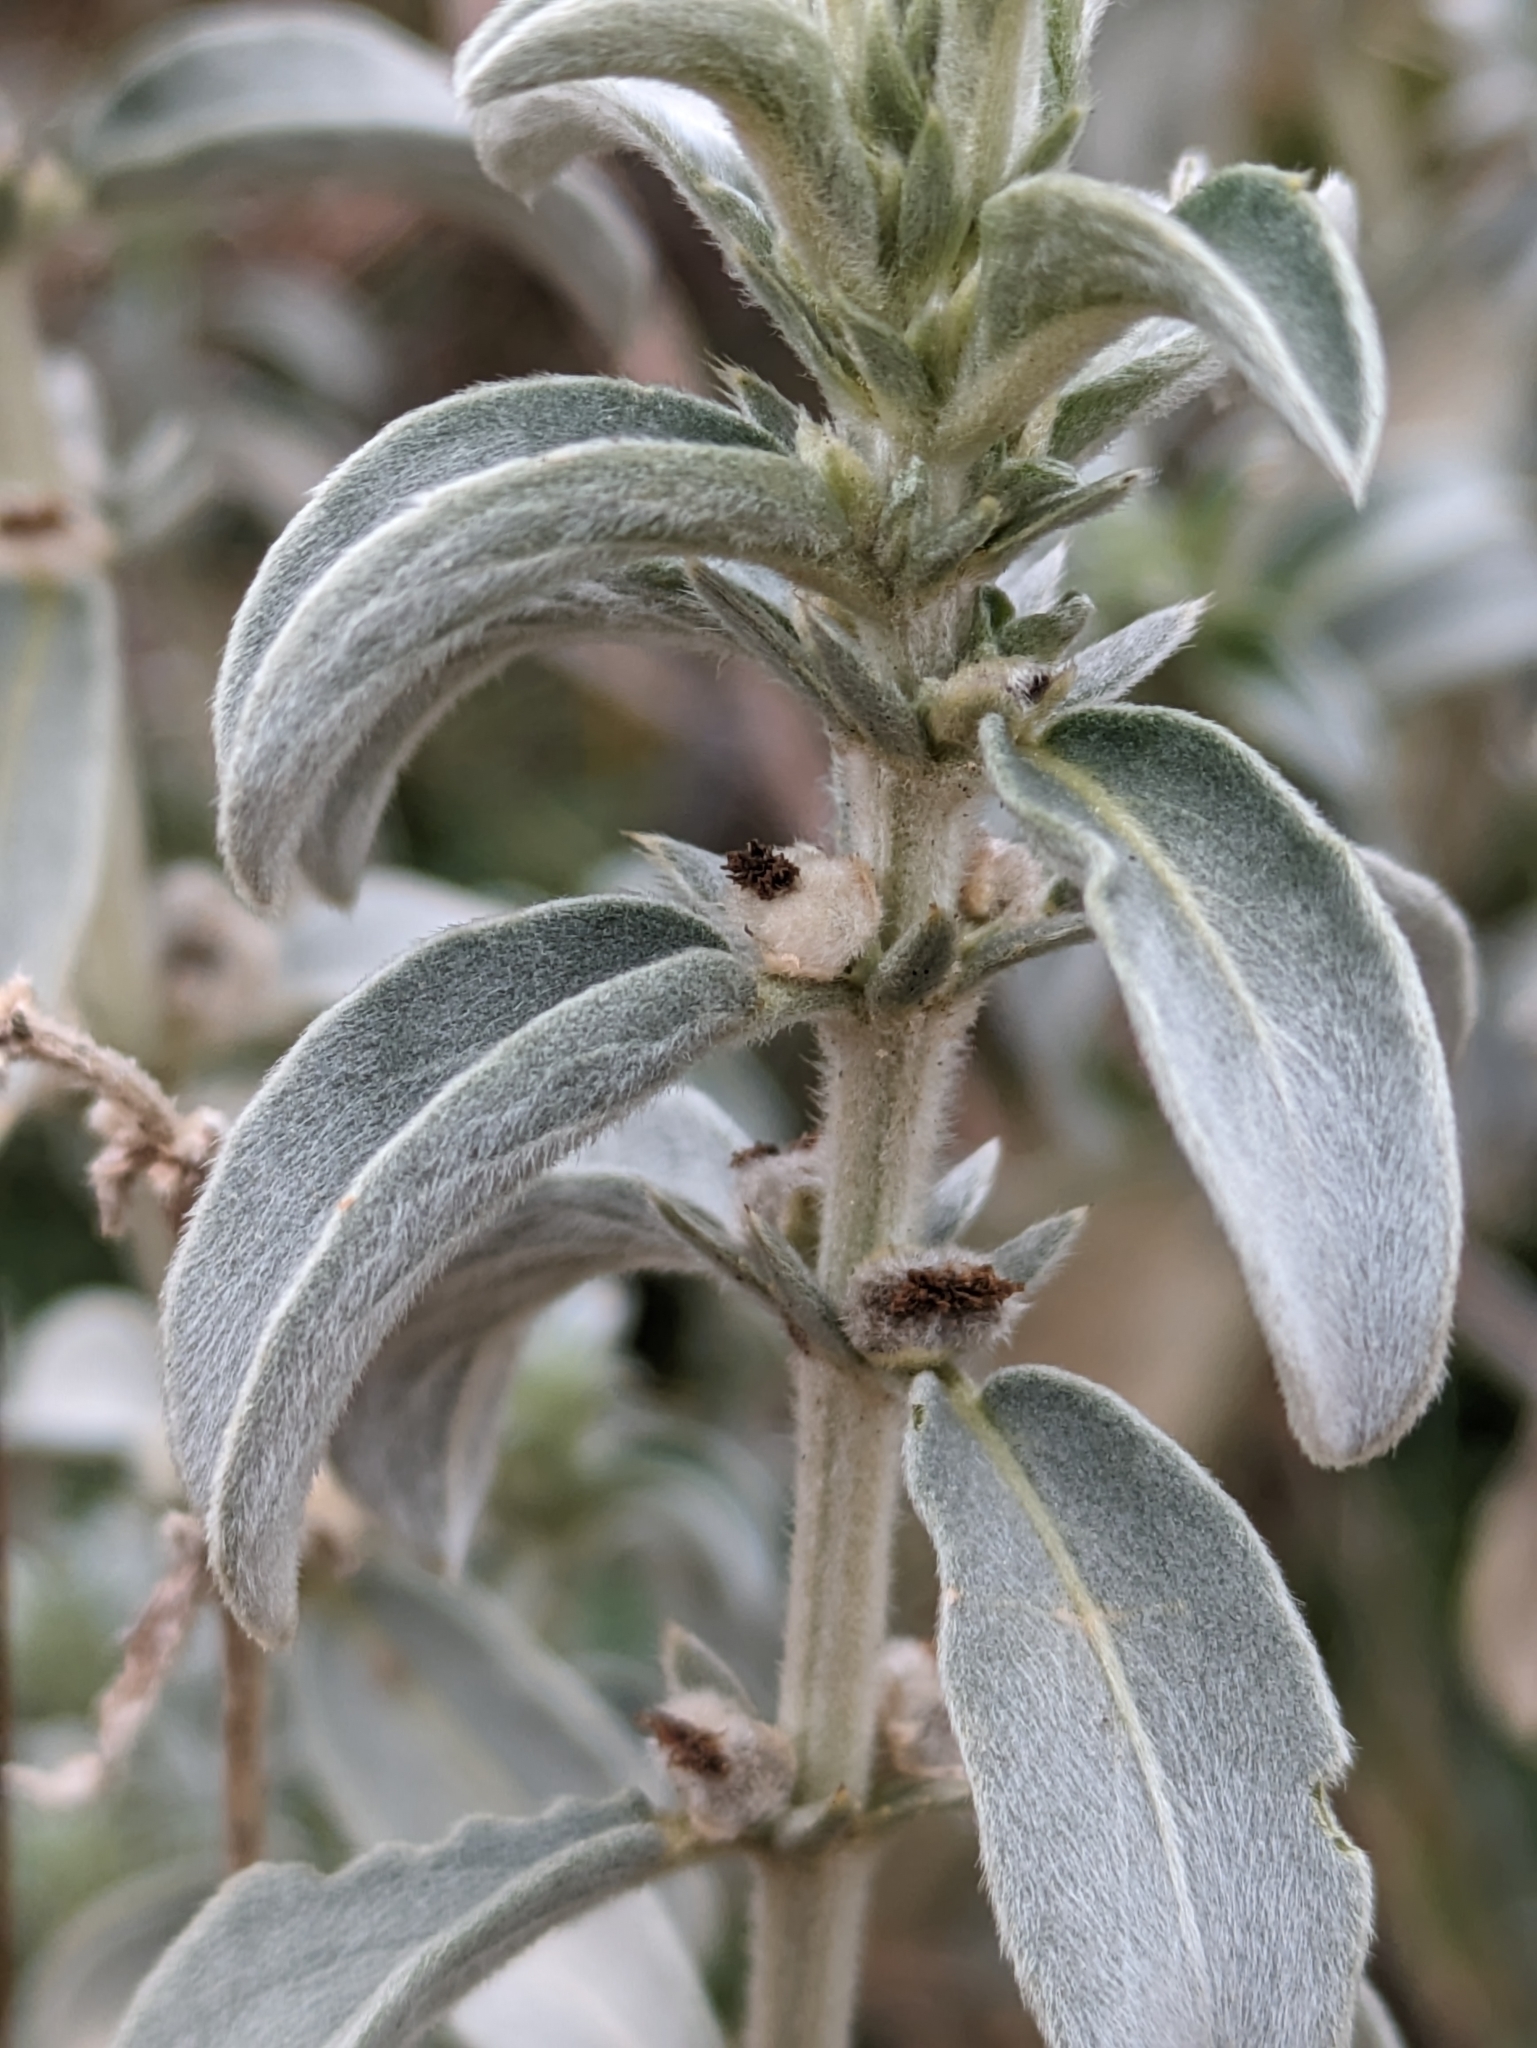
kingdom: Plantae
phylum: Tracheophyta
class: Magnoliopsida
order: Malpighiales
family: Euphorbiaceae
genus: Mercurialis
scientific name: Mercurialis tomentosa
